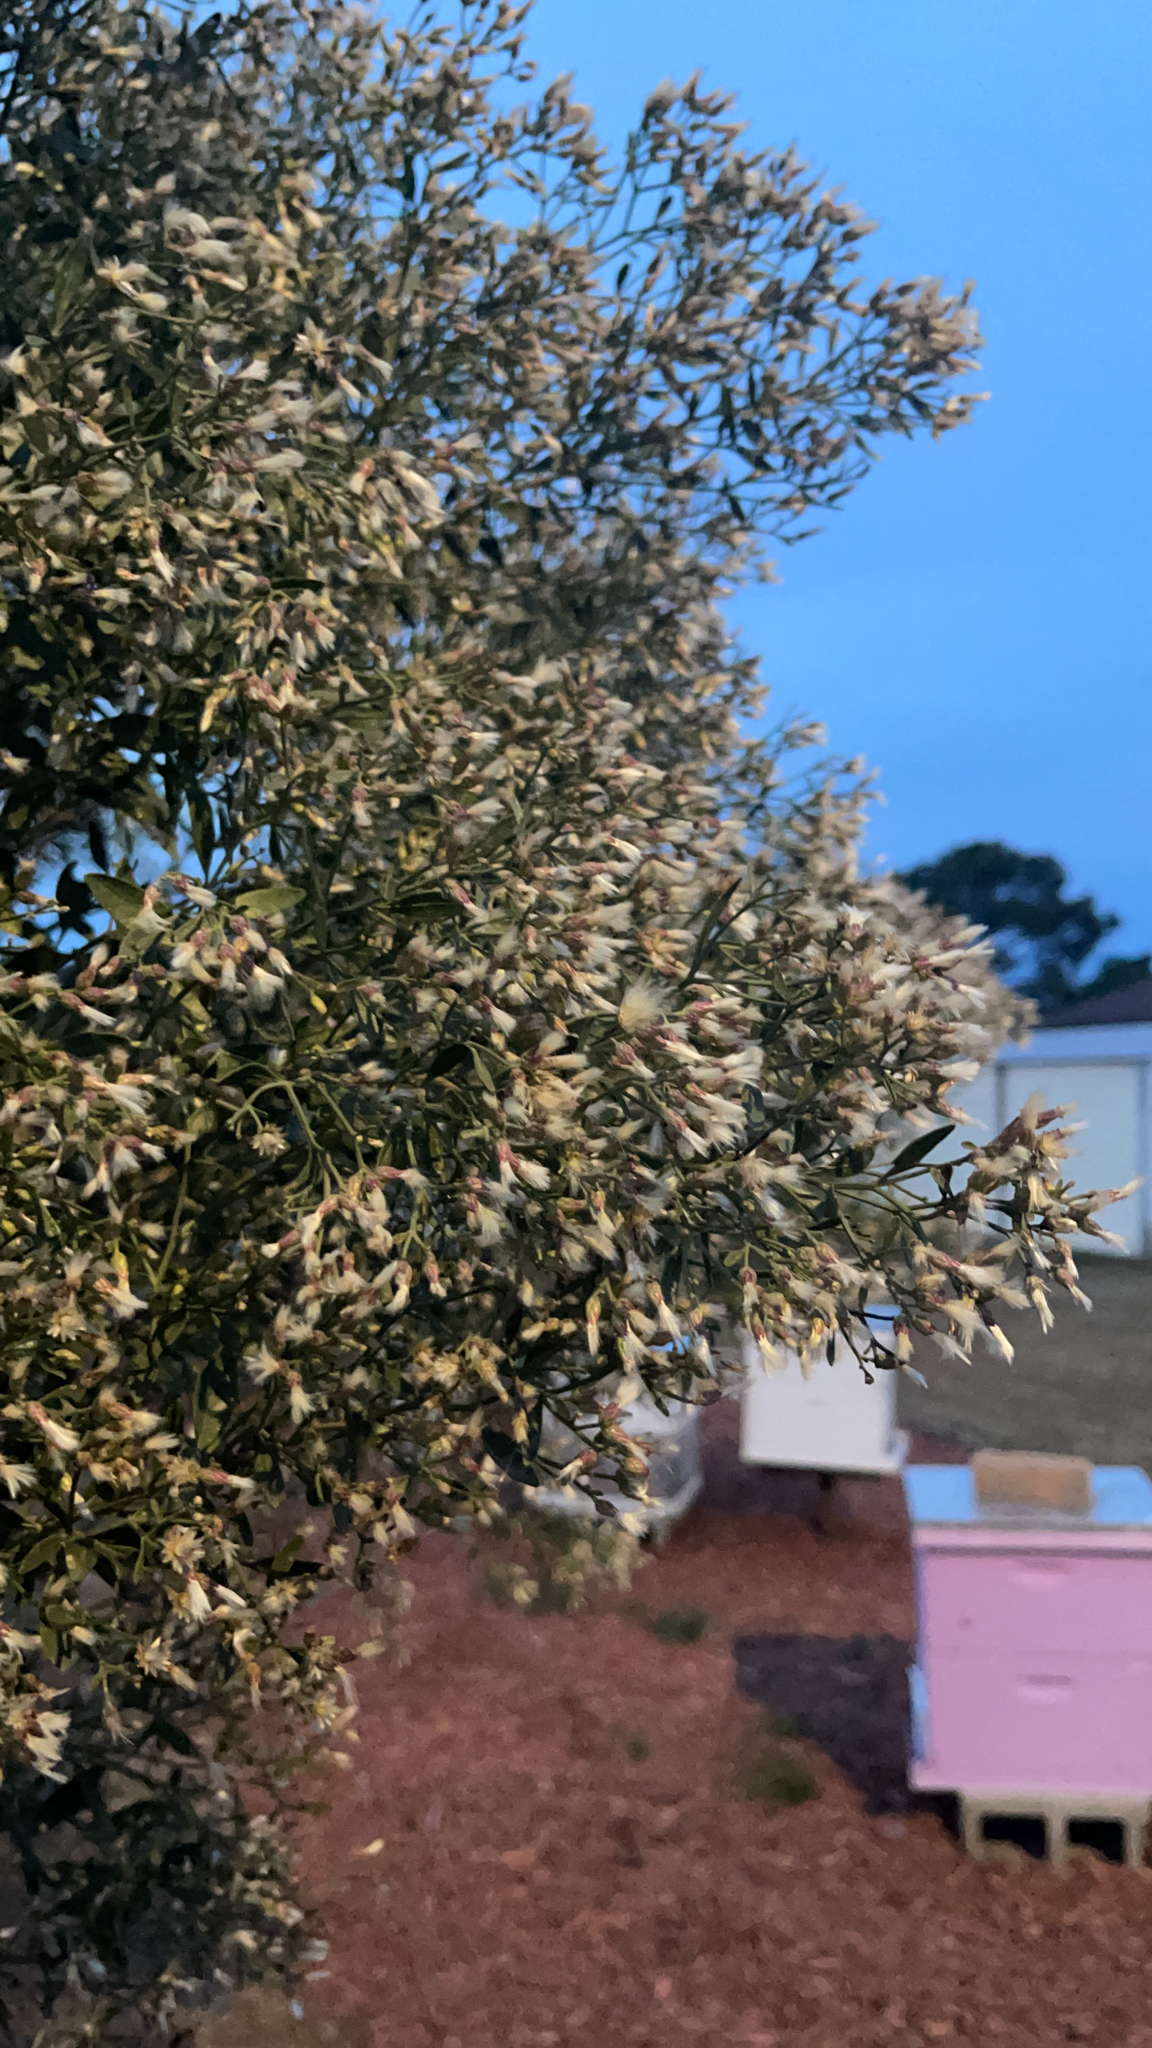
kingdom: Plantae
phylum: Tracheophyta
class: Magnoliopsida
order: Asterales
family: Asteraceae
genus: Baccharis
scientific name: Baccharis halimifolia
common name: Eastern baccharis
